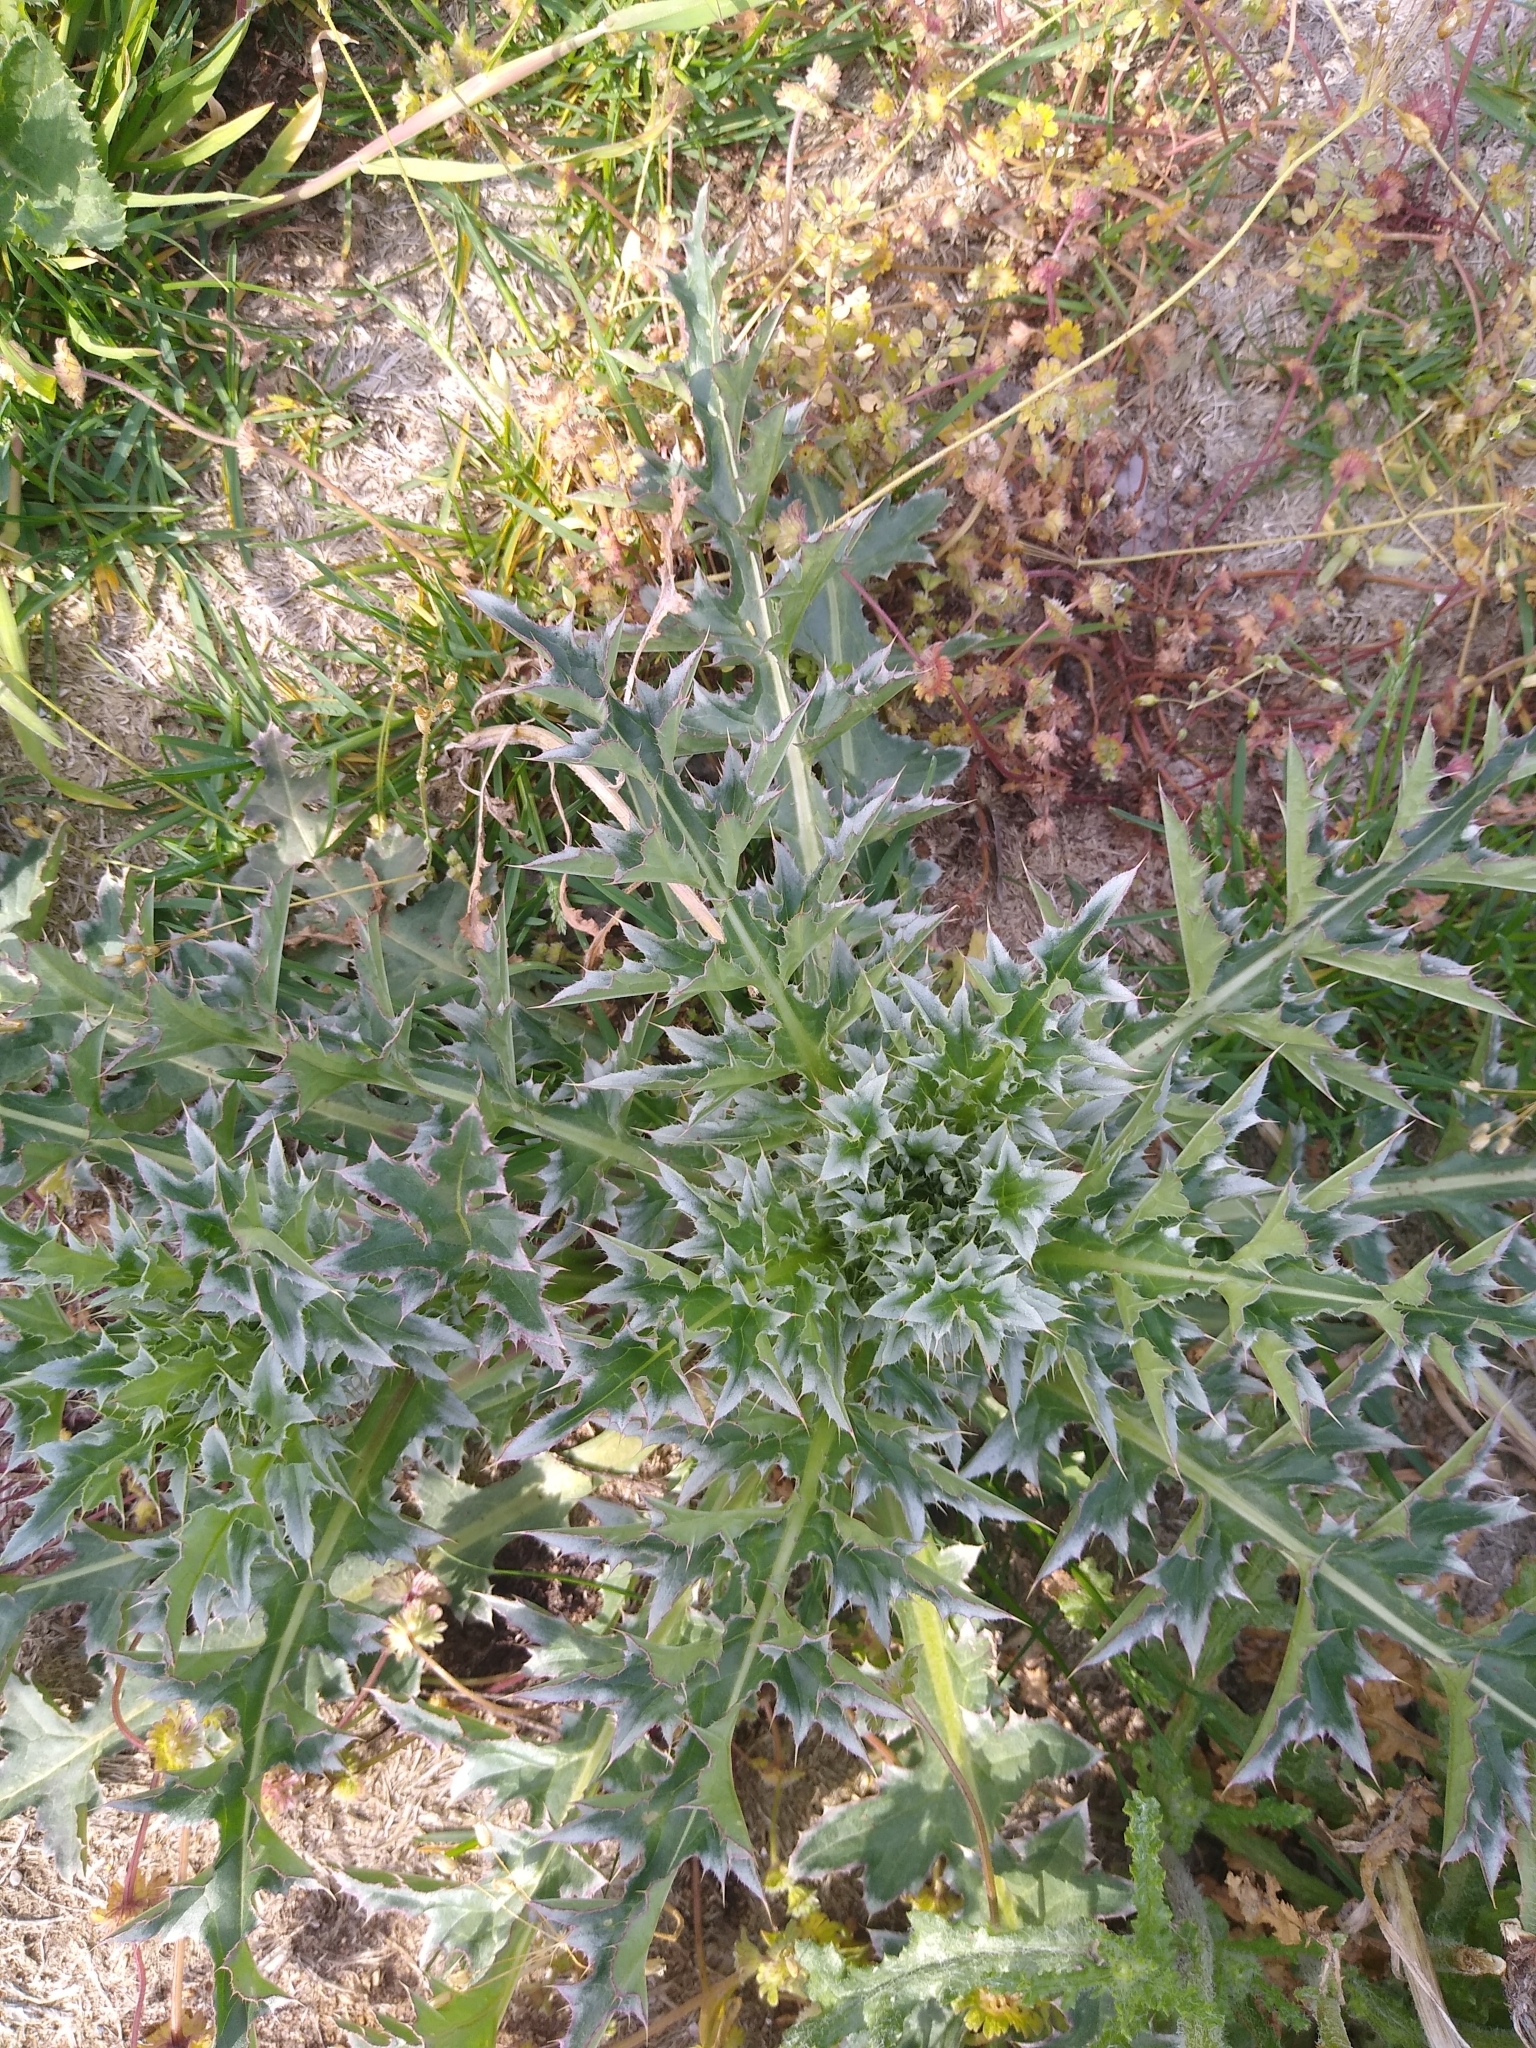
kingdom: Plantae
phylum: Tracheophyta
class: Magnoliopsida
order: Asterales
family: Asteraceae
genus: Carduus
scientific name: Carduus nutans
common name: Musk thistle
